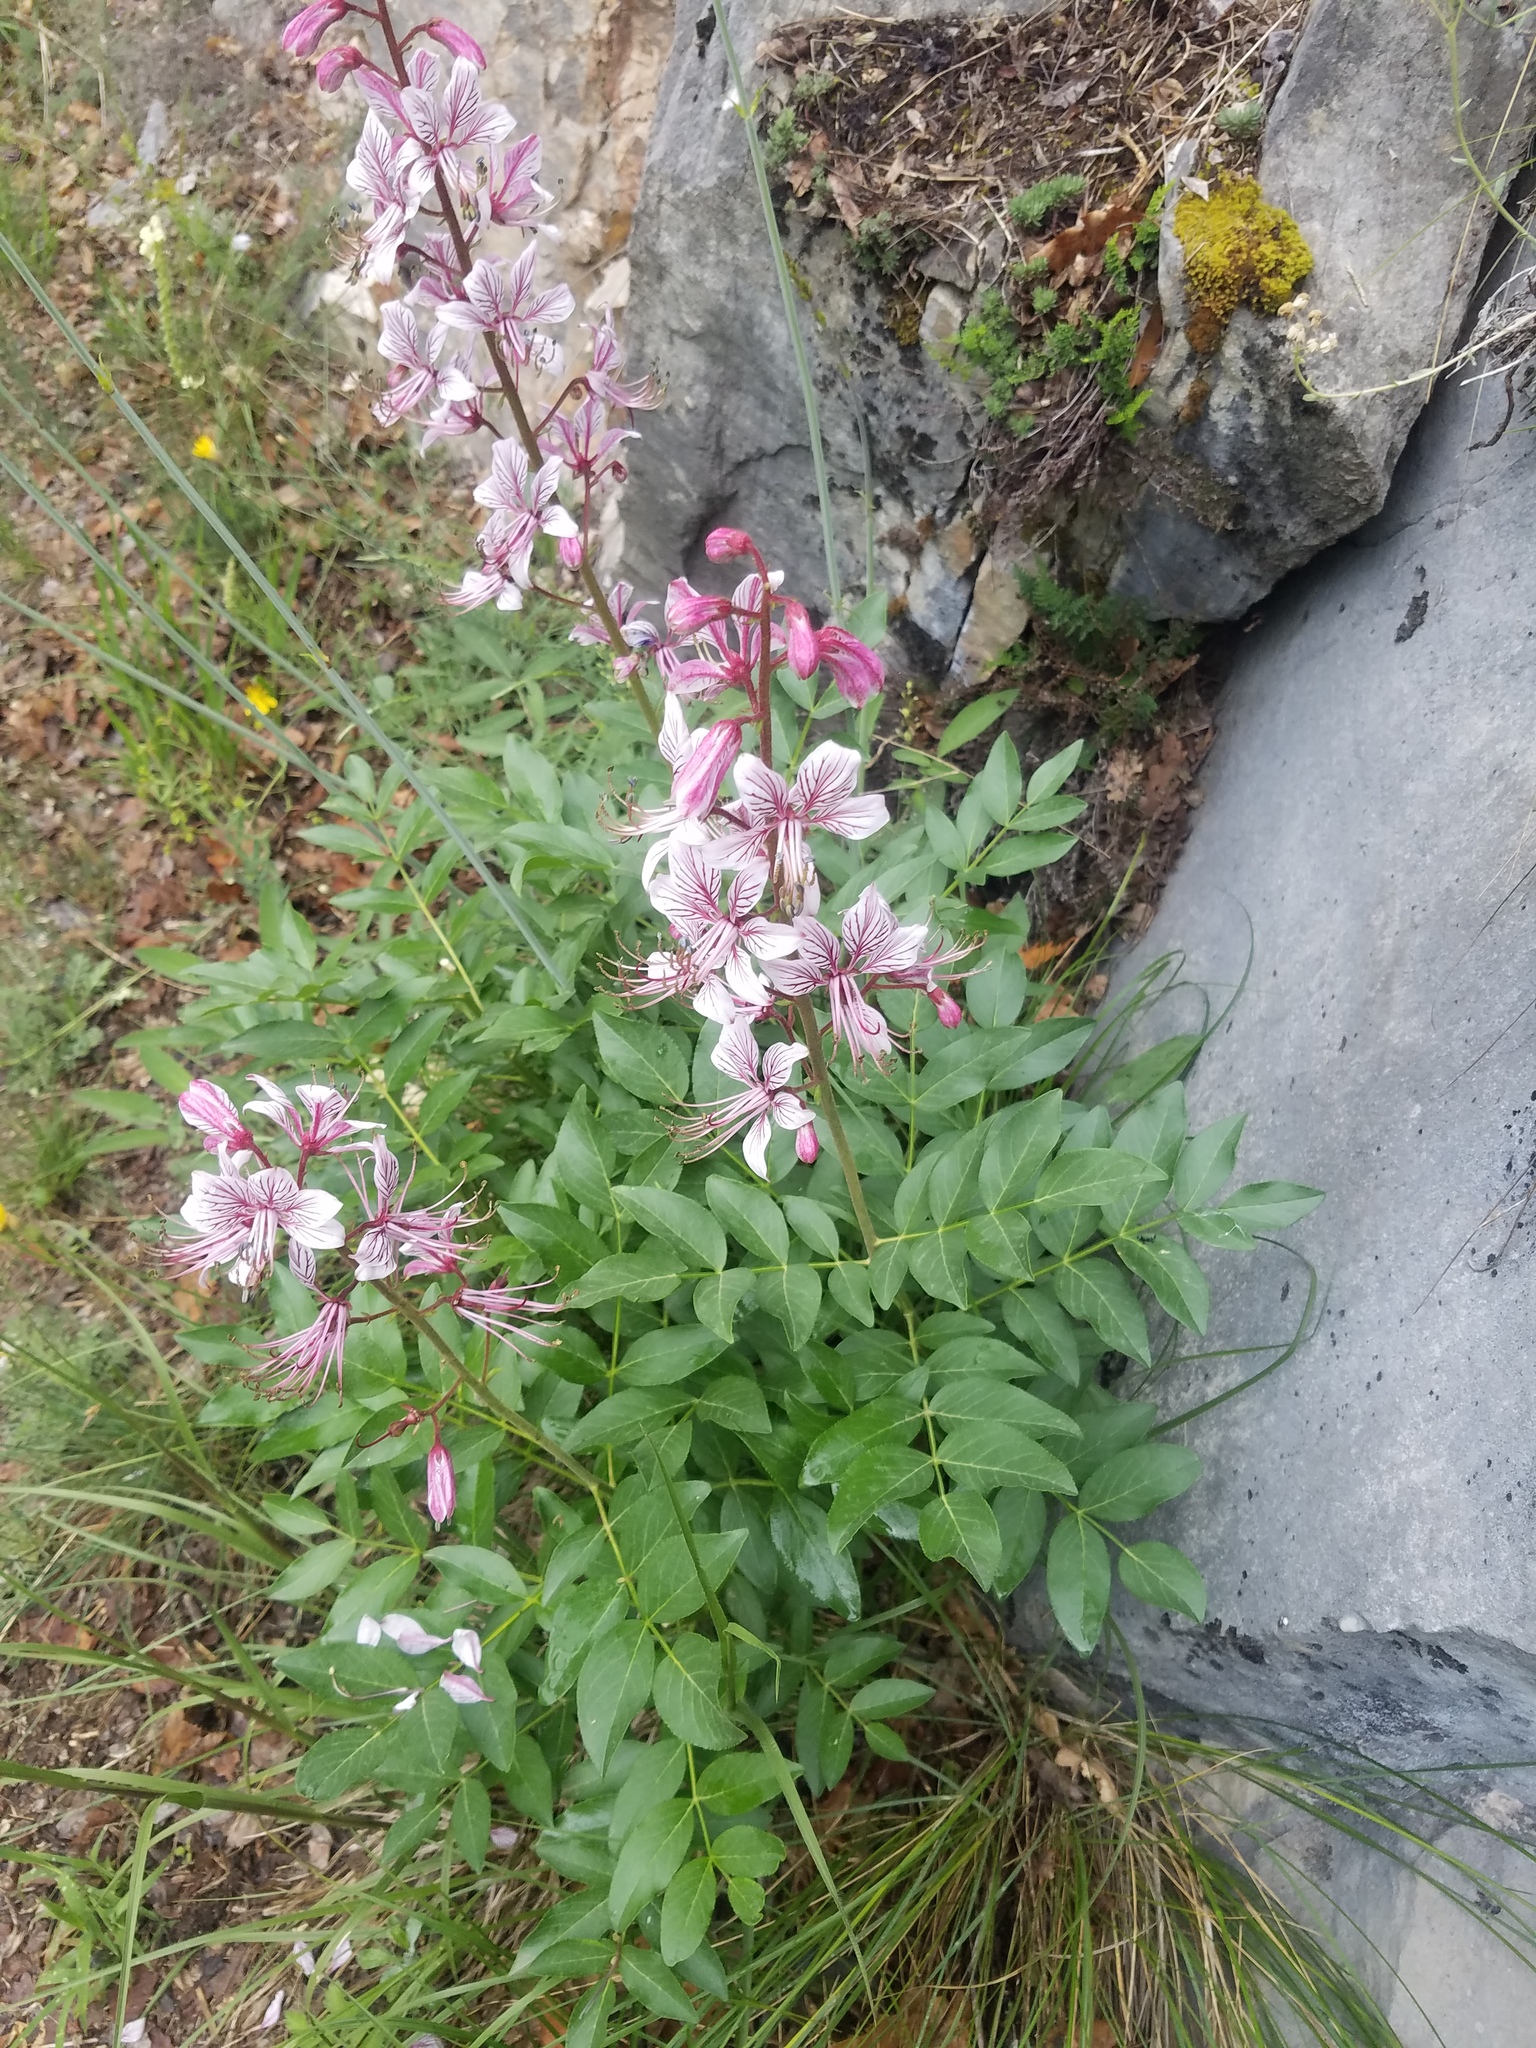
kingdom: Plantae
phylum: Tracheophyta
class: Magnoliopsida
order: Sapindales
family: Rutaceae
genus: Dictamnus
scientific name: Dictamnus albus
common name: Gasplant
